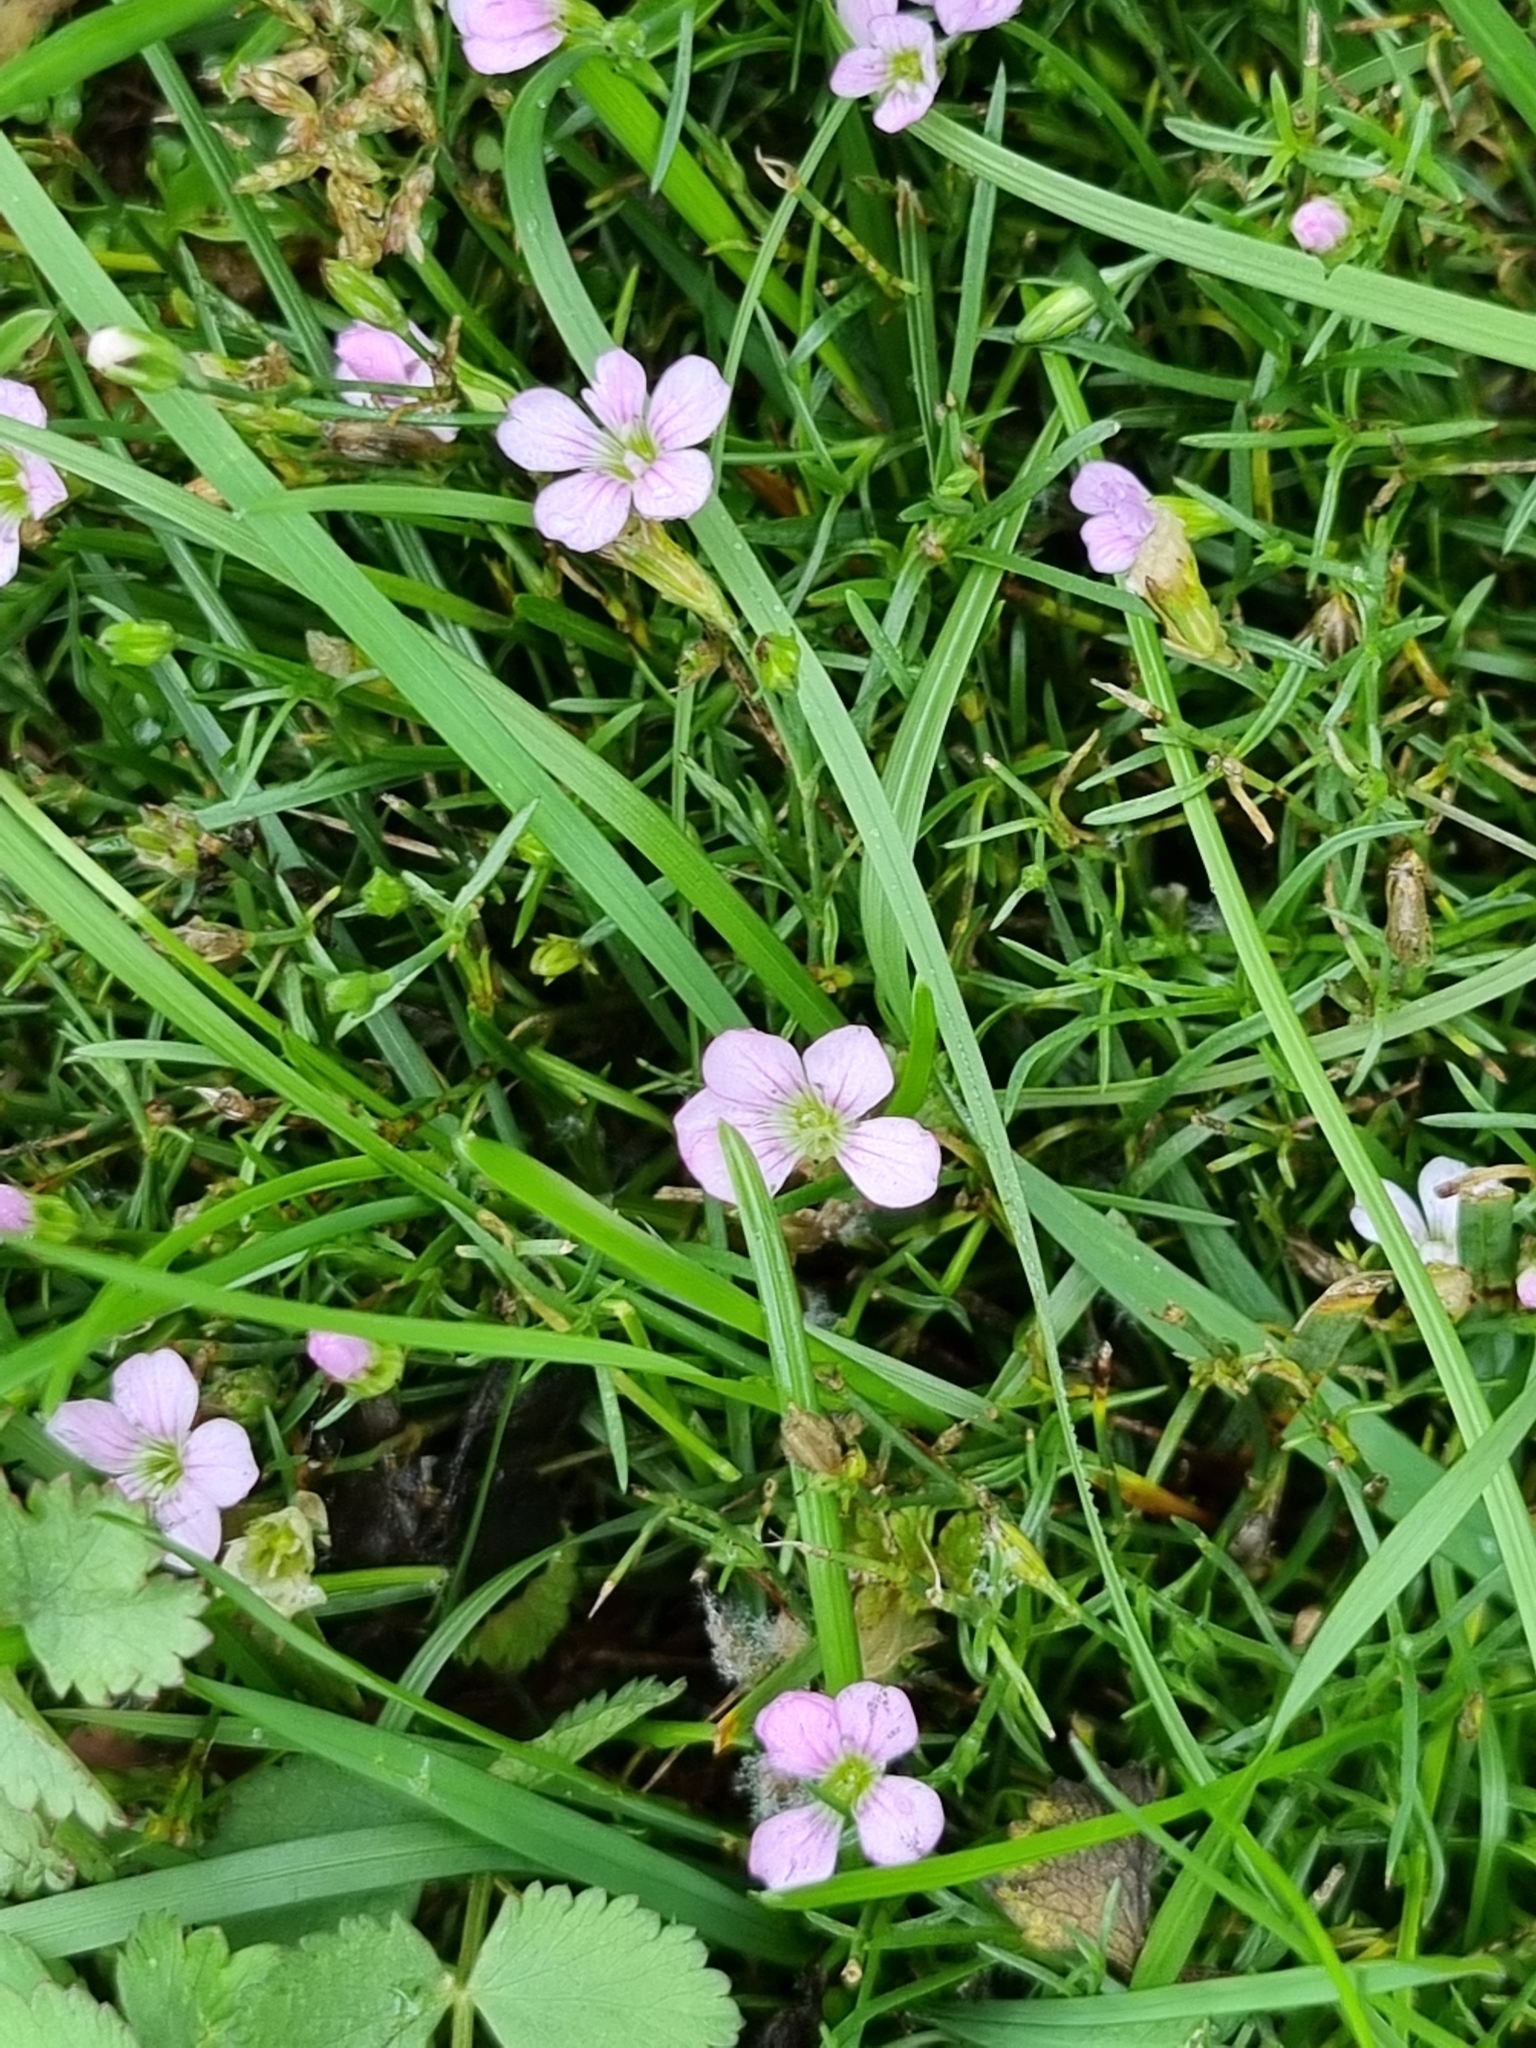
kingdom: Plantae
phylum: Tracheophyta
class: Magnoliopsida
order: Caryophyllales
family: Caryophyllaceae
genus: Petrorhagia
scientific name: Petrorhagia saxifraga
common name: Tunicflower
